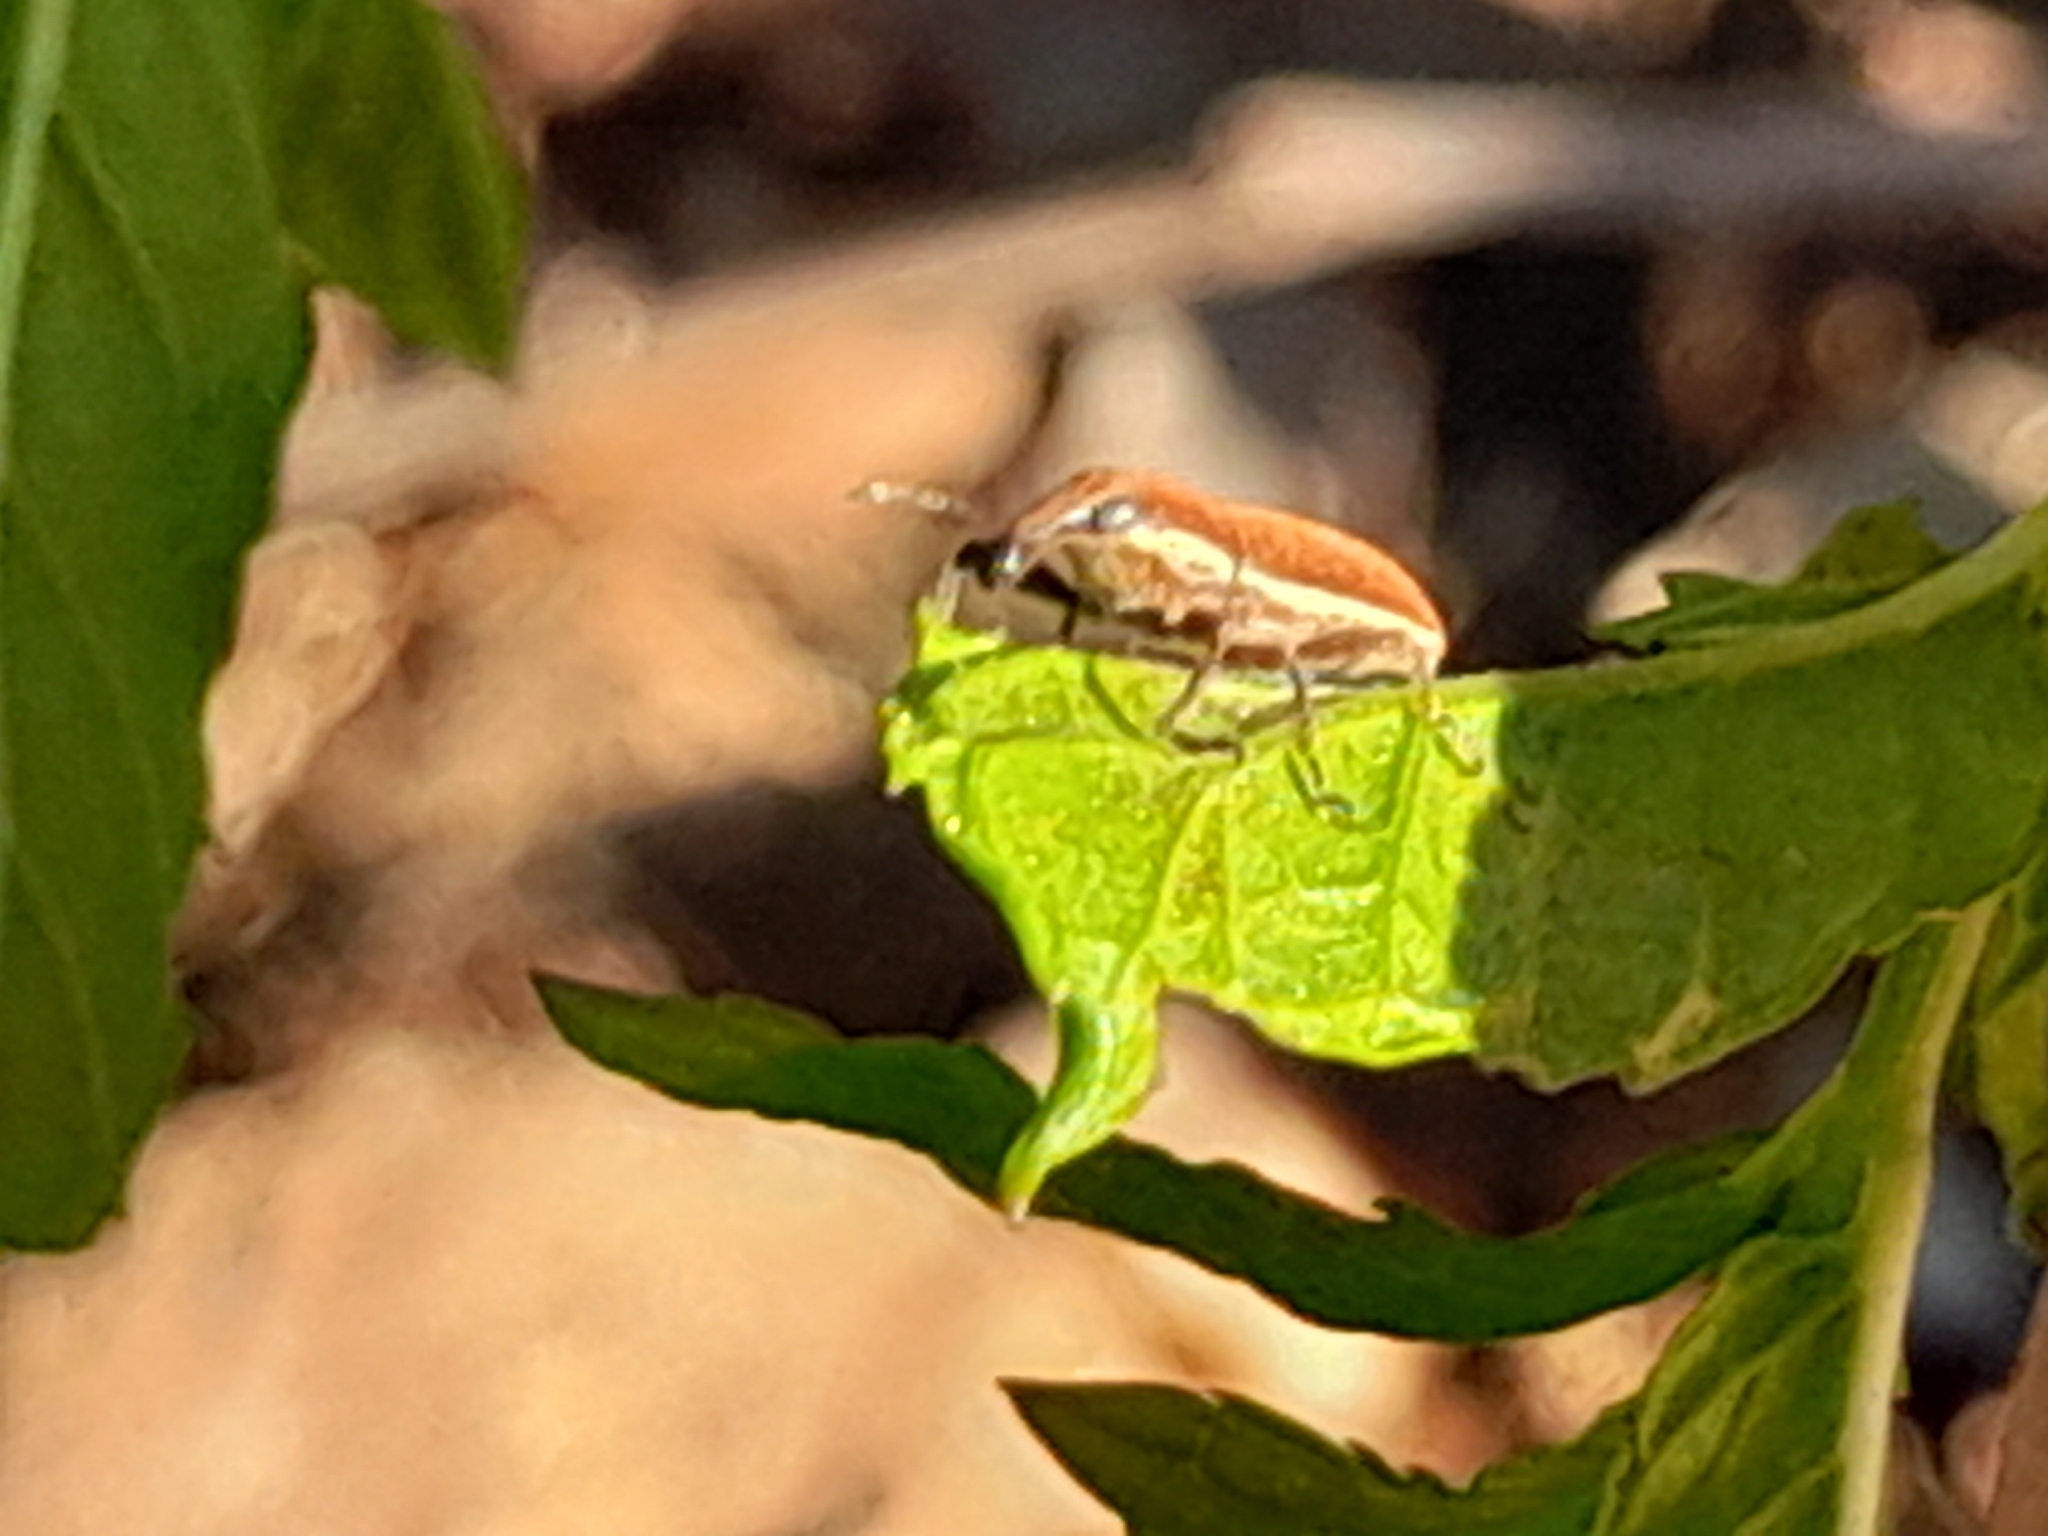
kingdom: Animalia
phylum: Arthropoda
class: Insecta
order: Coleoptera
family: Curculionidae
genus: Lixus
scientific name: Lixus ochraceus
